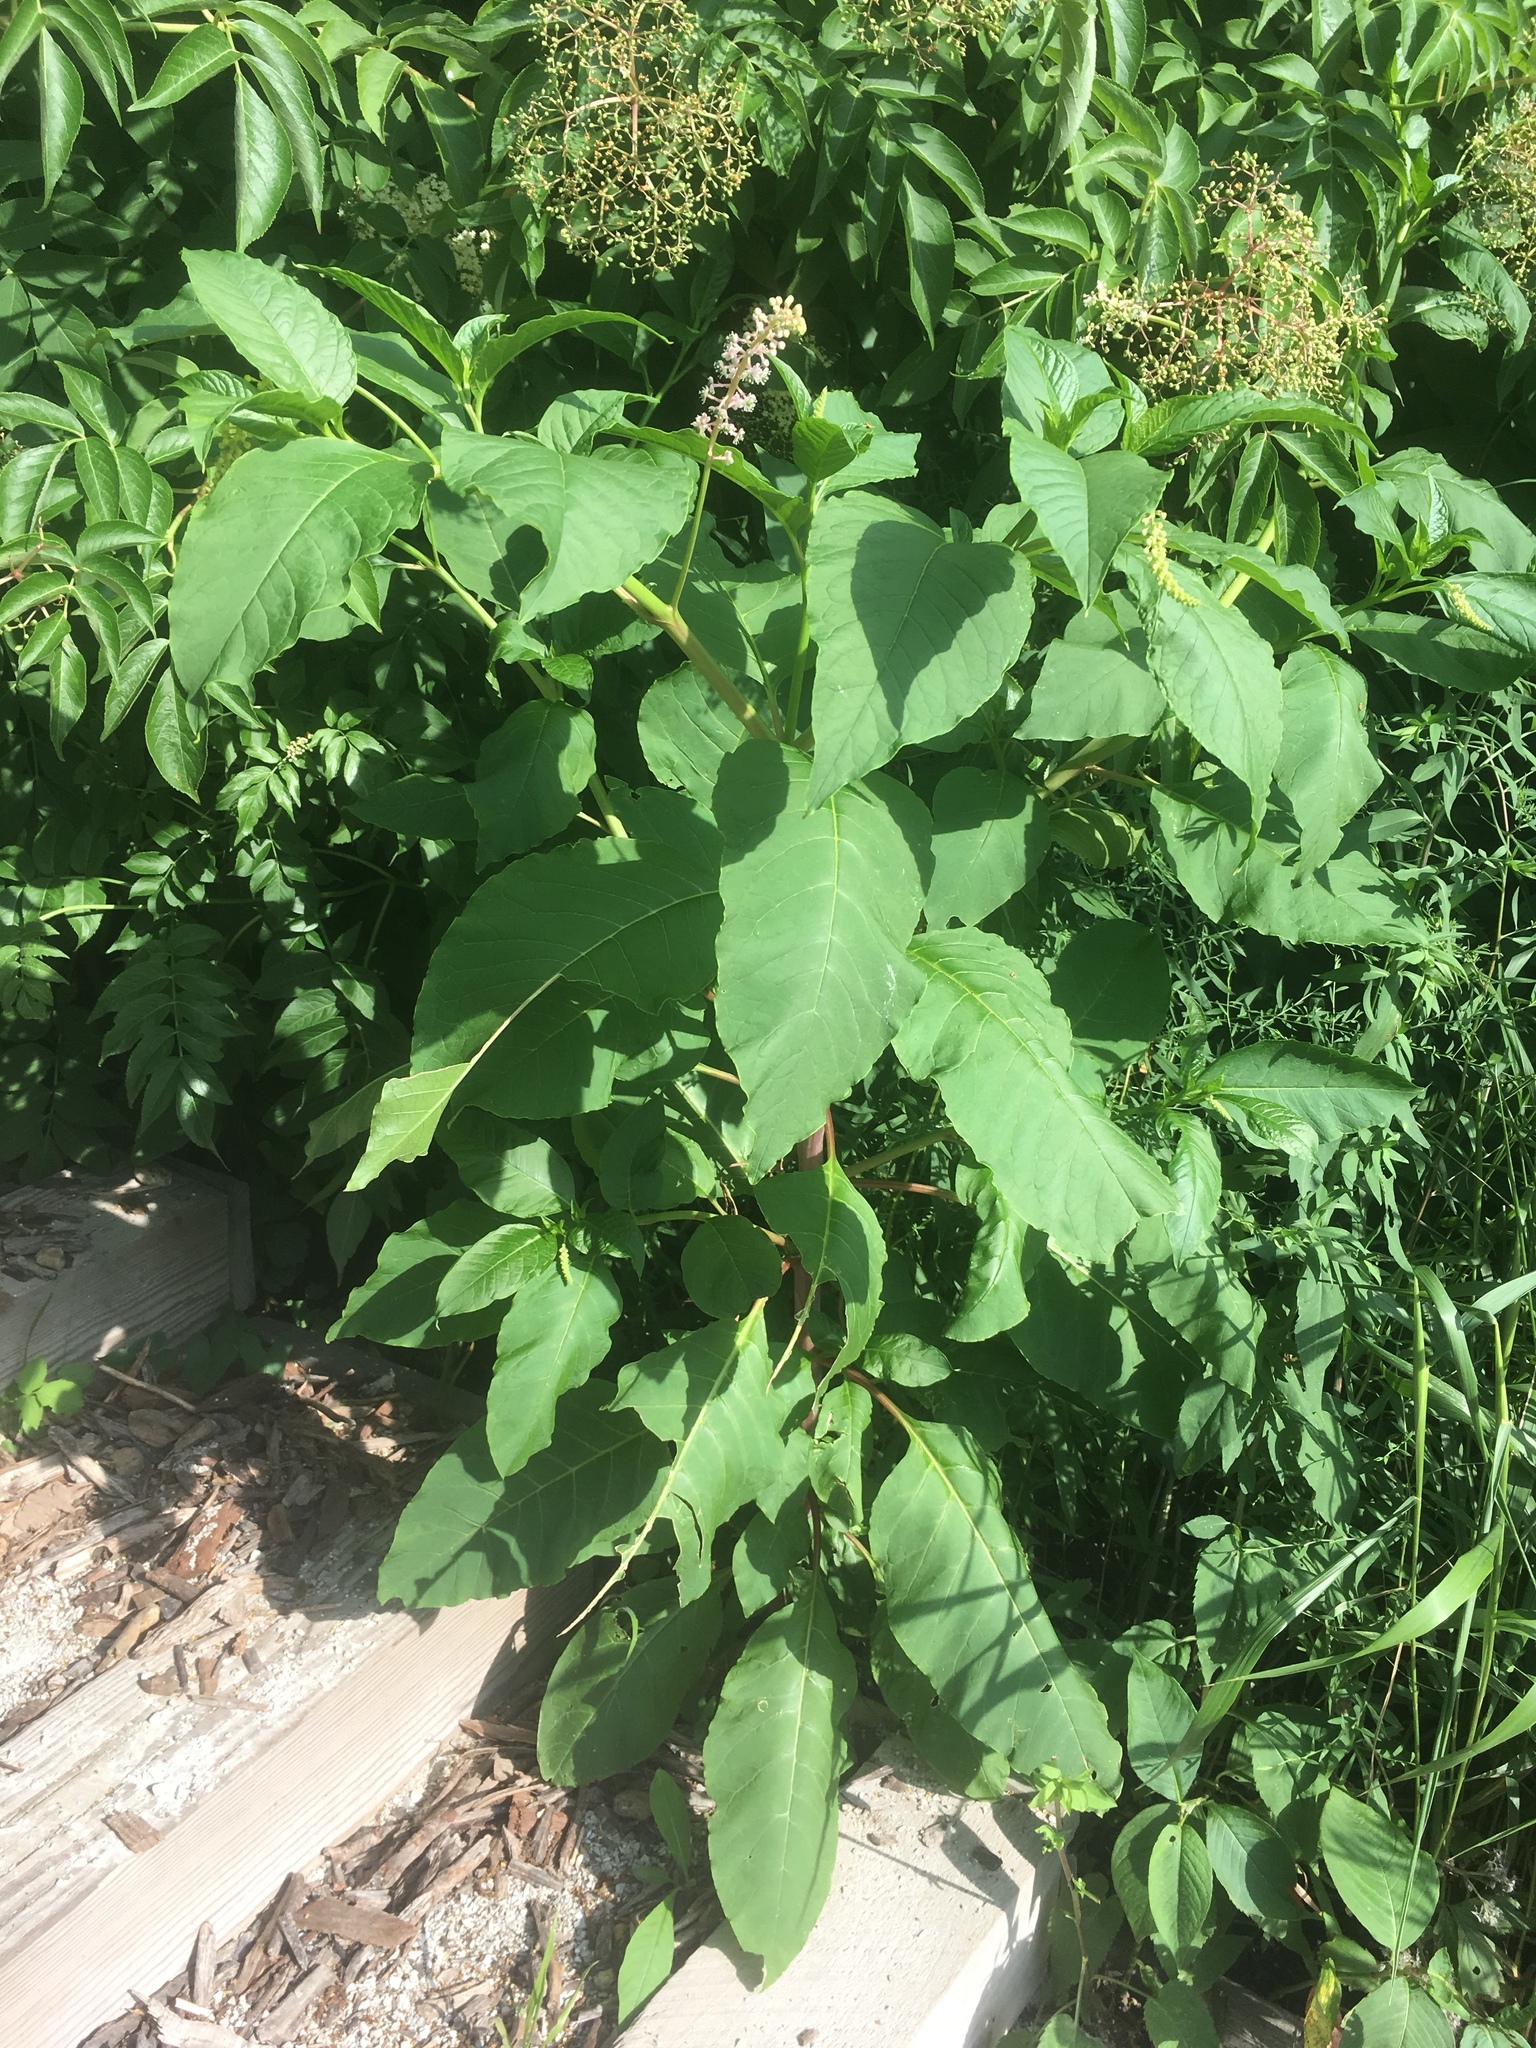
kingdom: Plantae
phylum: Tracheophyta
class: Magnoliopsida
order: Caryophyllales
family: Phytolaccaceae
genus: Phytolacca
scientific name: Phytolacca americana
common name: American pokeweed
